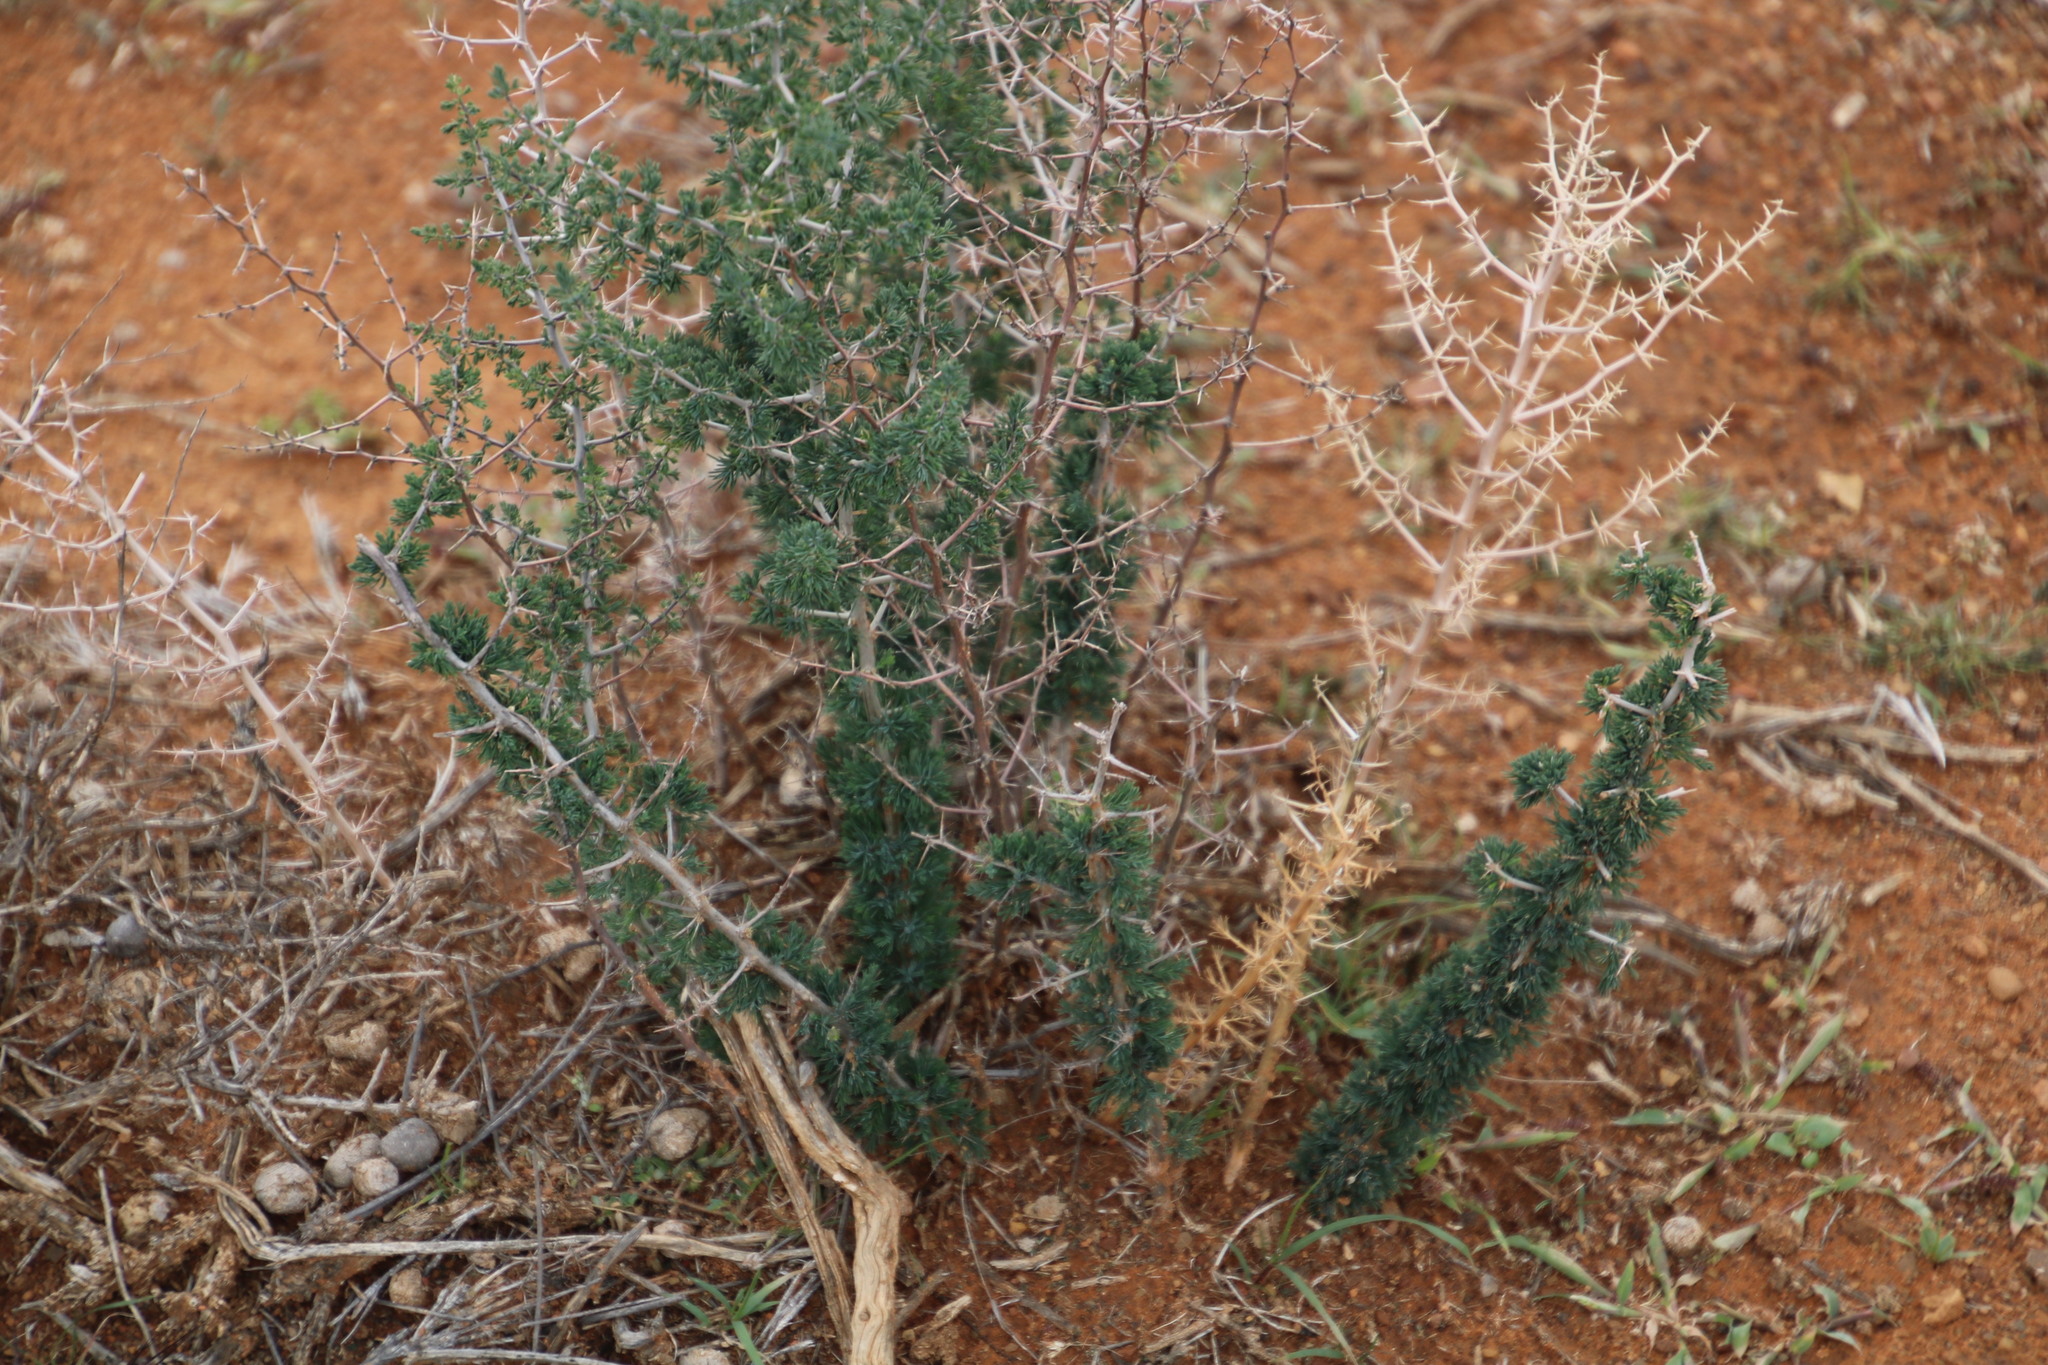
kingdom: Plantae
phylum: Tracheophyta
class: Liliopsida
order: Asparagales
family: Asparagaceae
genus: Asparagus
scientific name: Asparagus suaveolens
